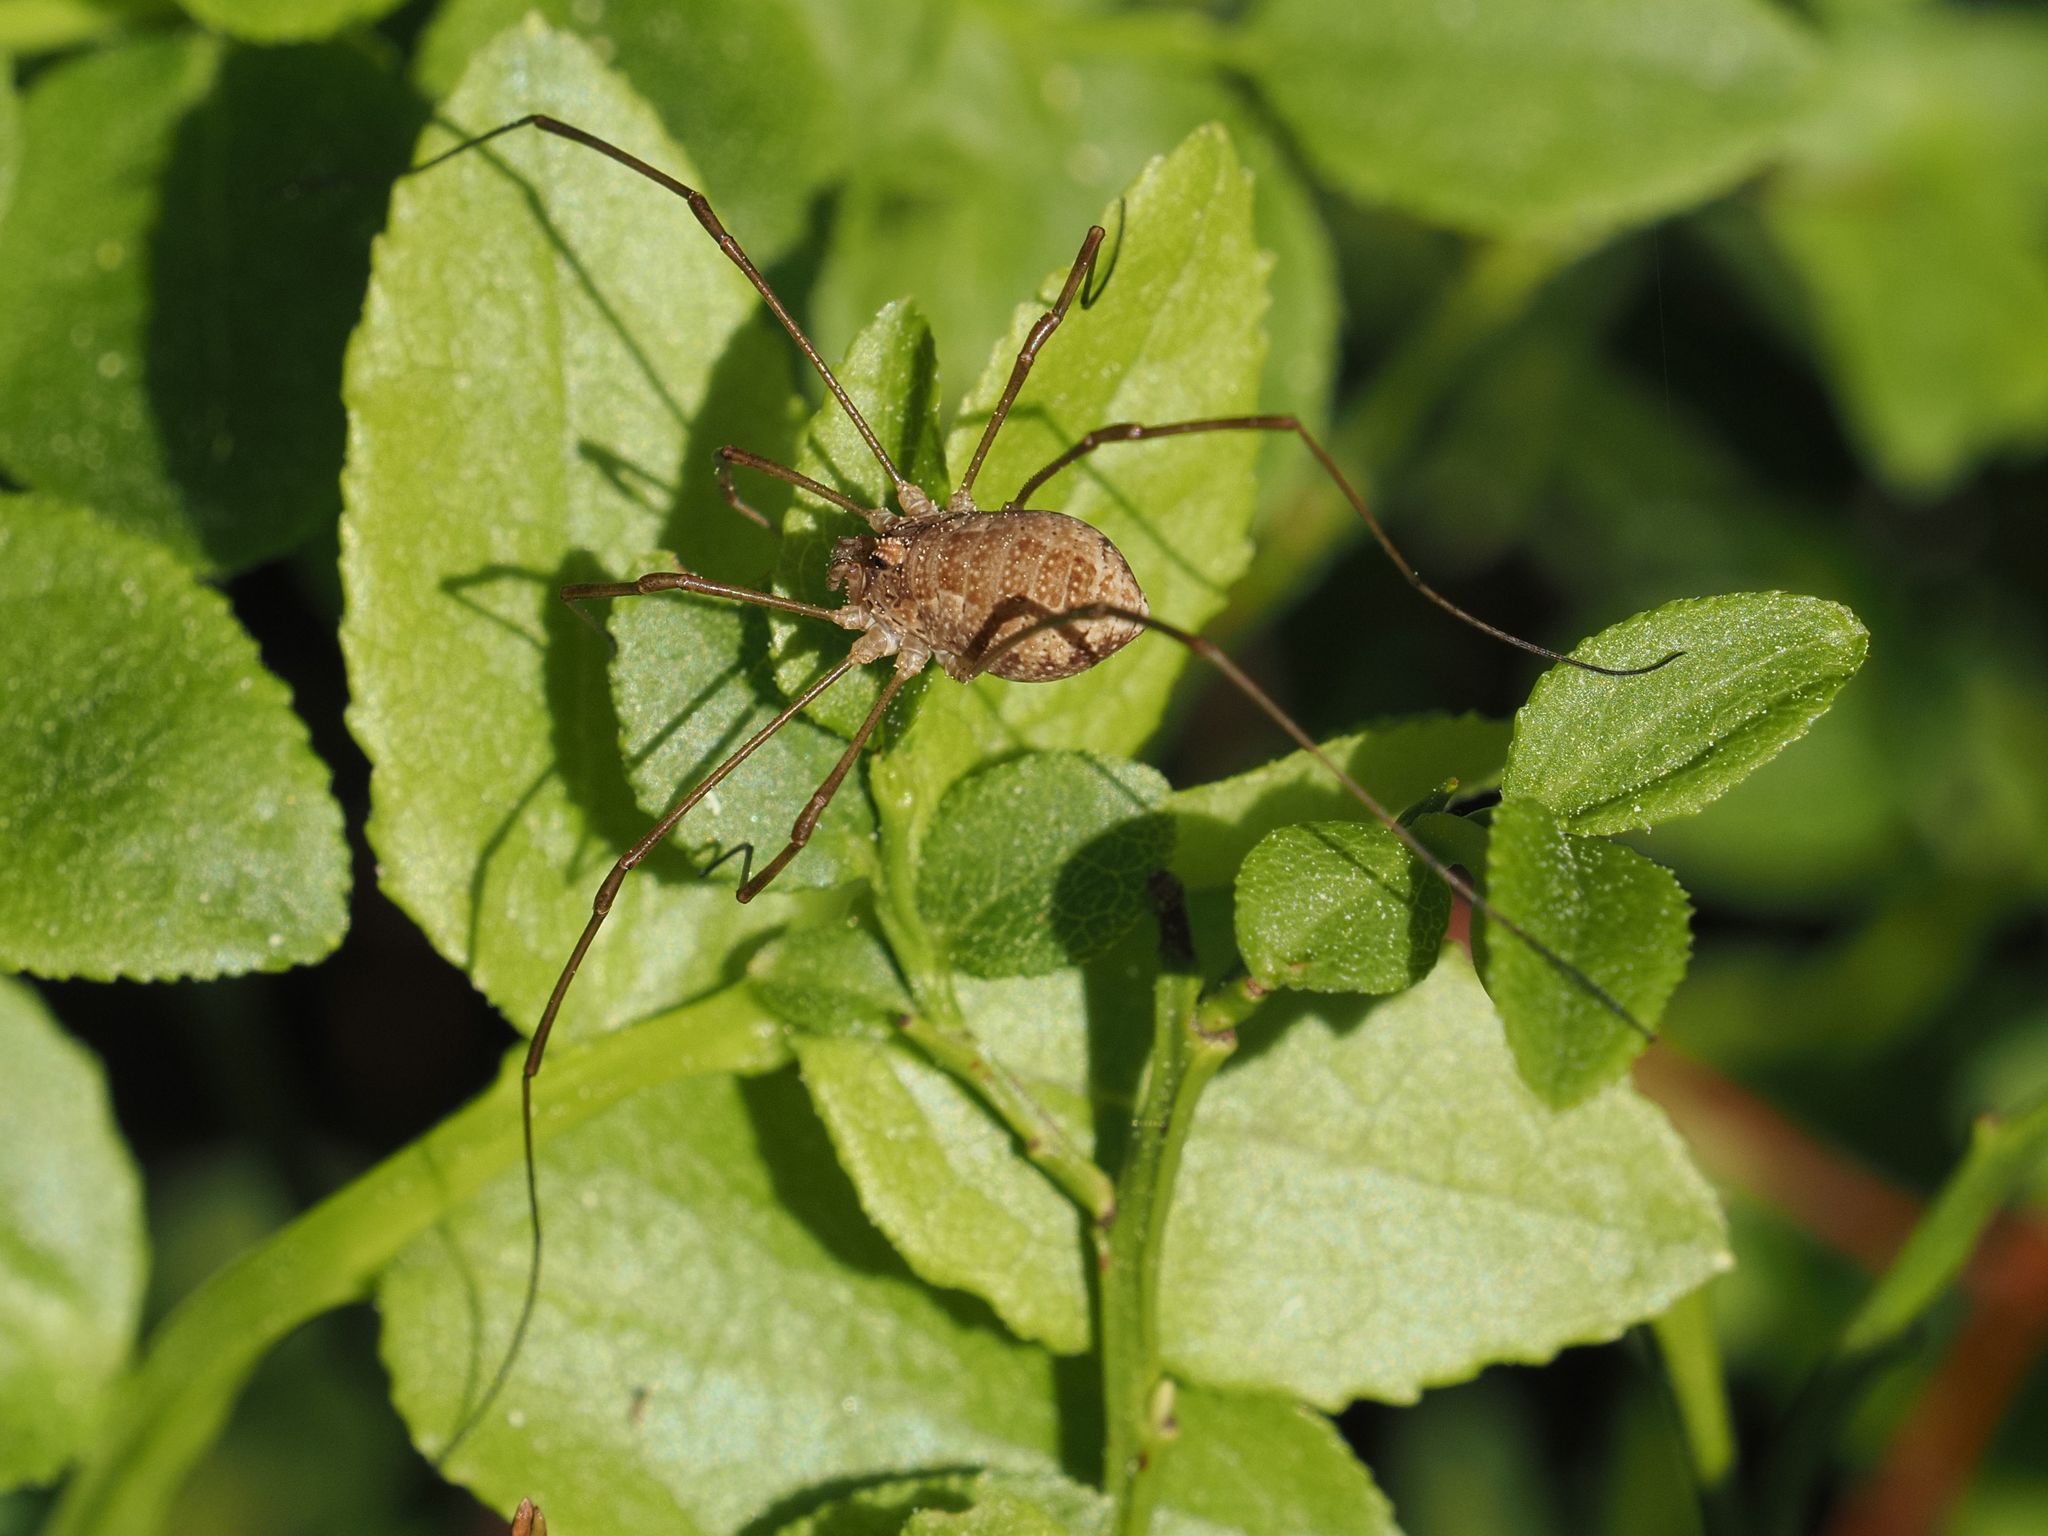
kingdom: Animalia
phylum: Arthropoda
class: Arachnida
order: Opiliones
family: Phalangiidae
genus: Rilaena
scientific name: Rilaena triangularis
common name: Spring harvestman
